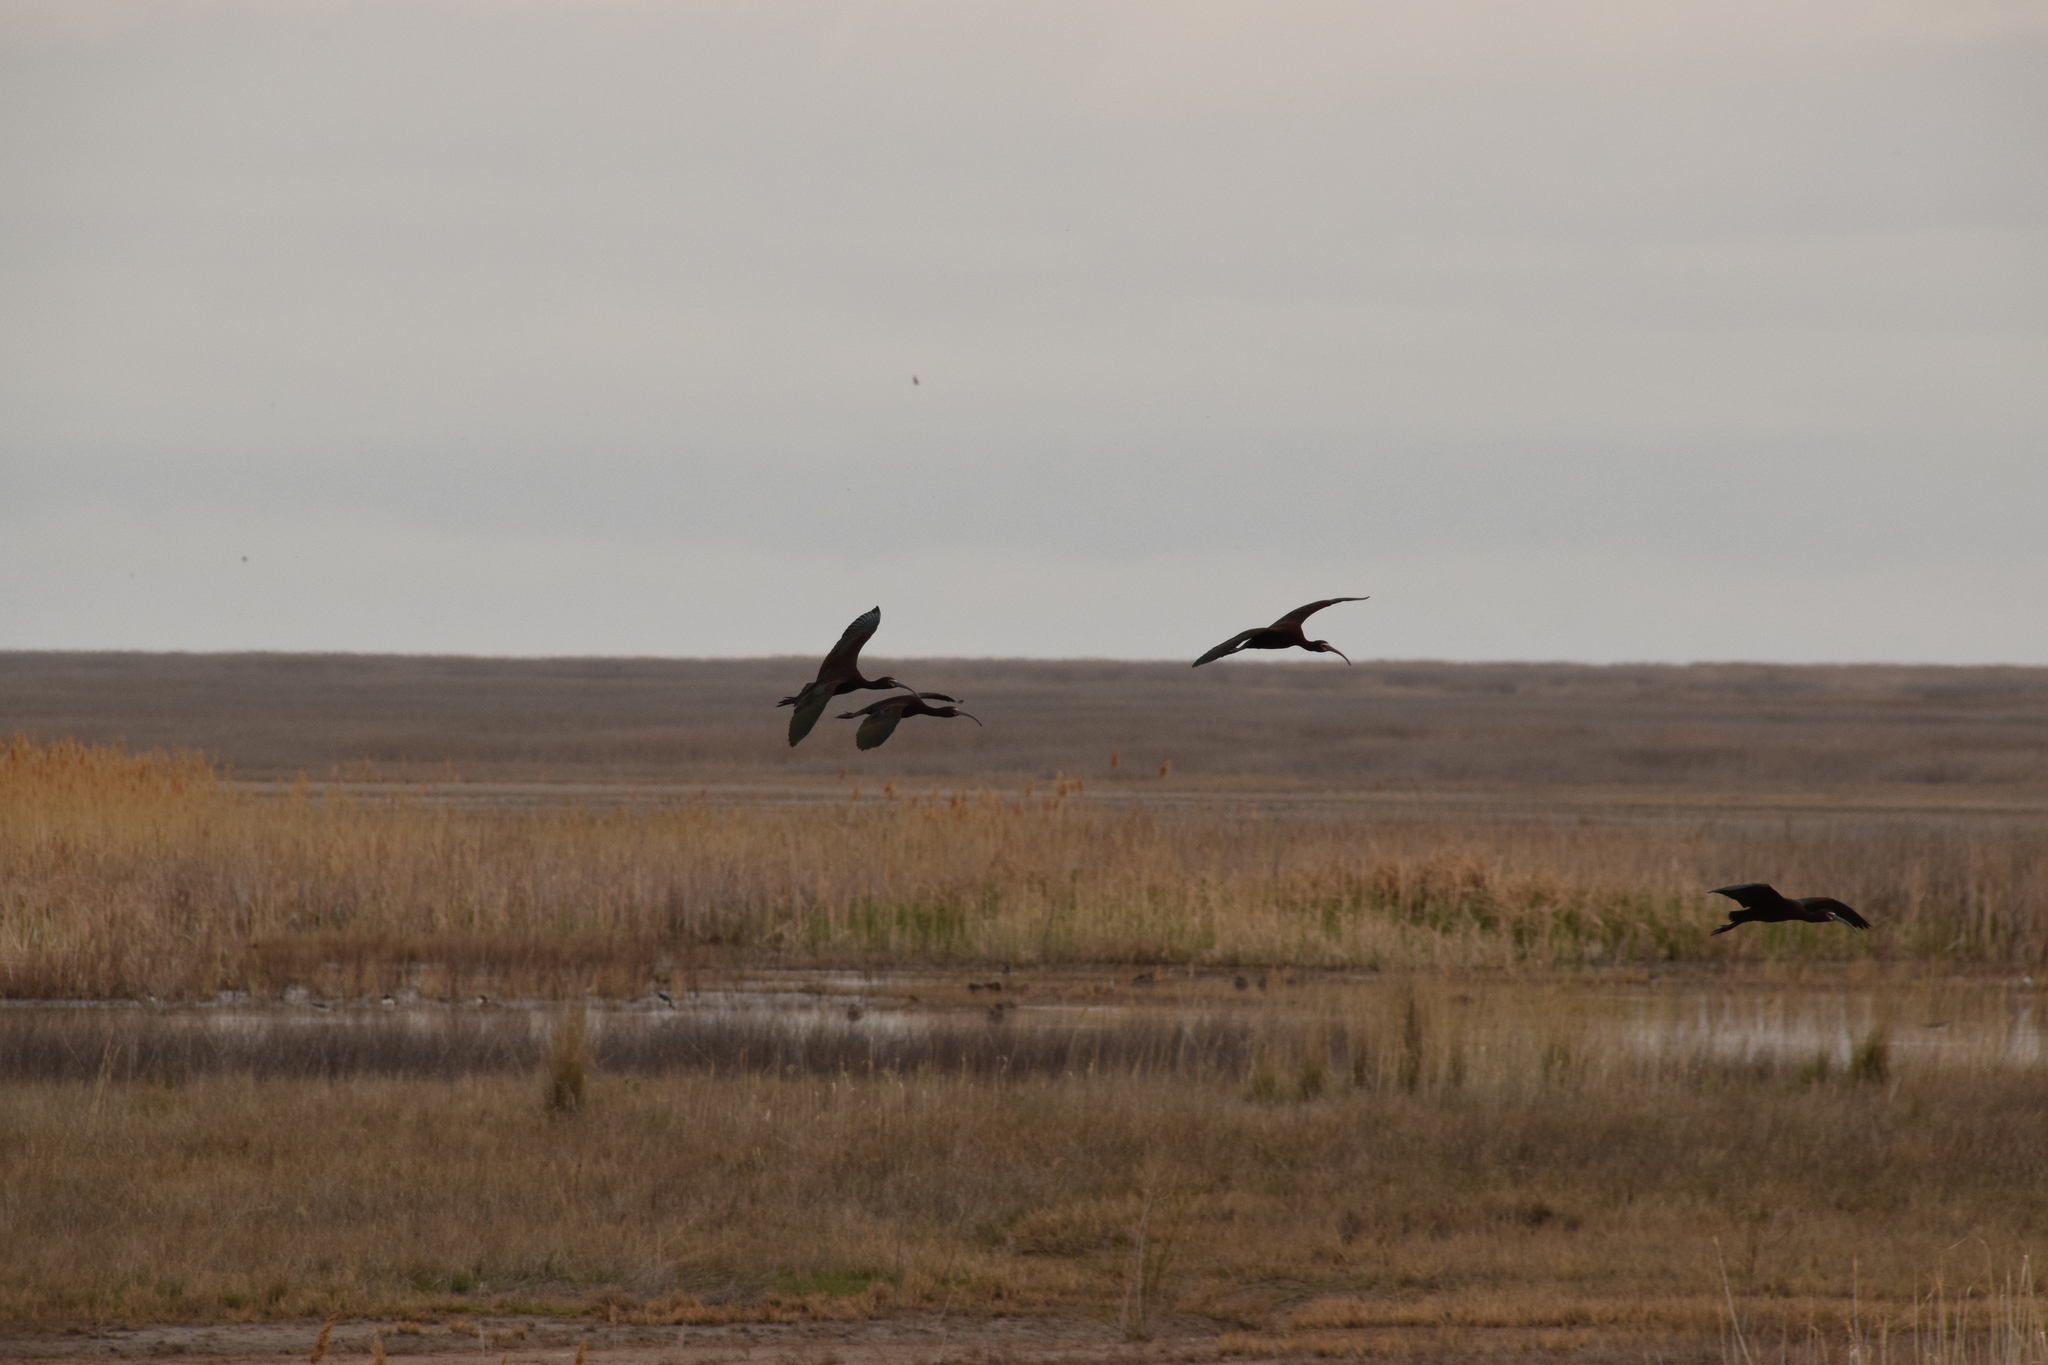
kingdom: Animalia
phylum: Chordata
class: Aves
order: Pelecaniformes
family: Threskiornithidae
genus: Plegadis
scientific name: Plegadis chihi
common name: White-faced ibis
